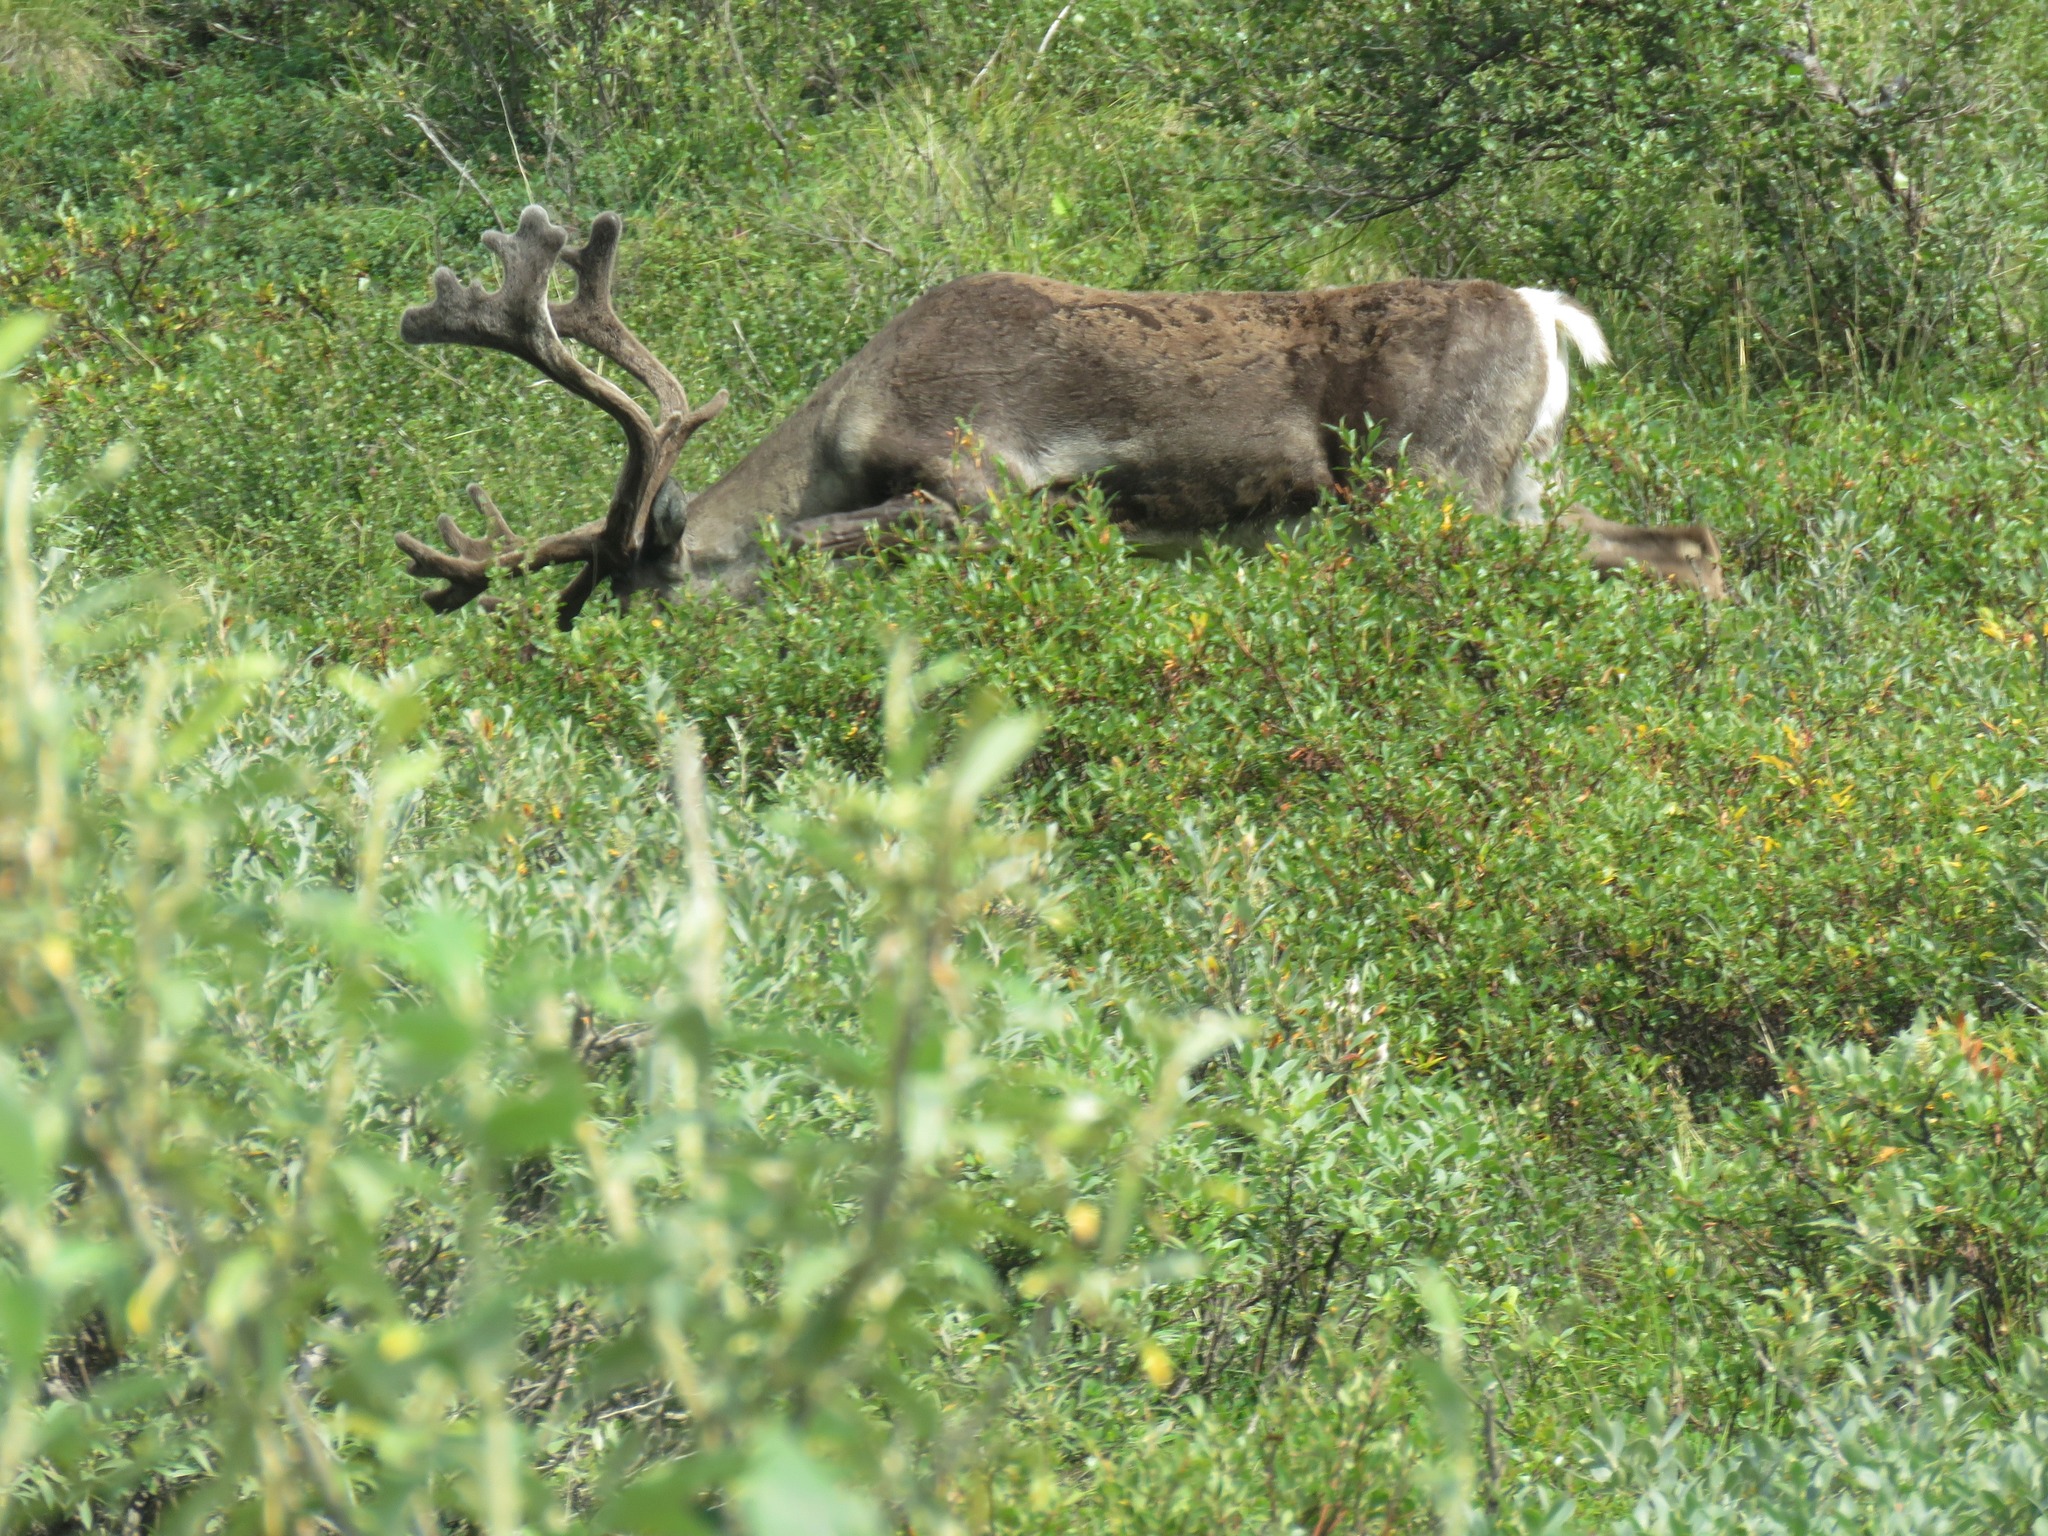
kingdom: Animalia
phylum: Chordata
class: Mammalia
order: Artiodactyla
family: Cervidae
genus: Rangifer
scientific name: Rangifer tarandus
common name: Reindeer
